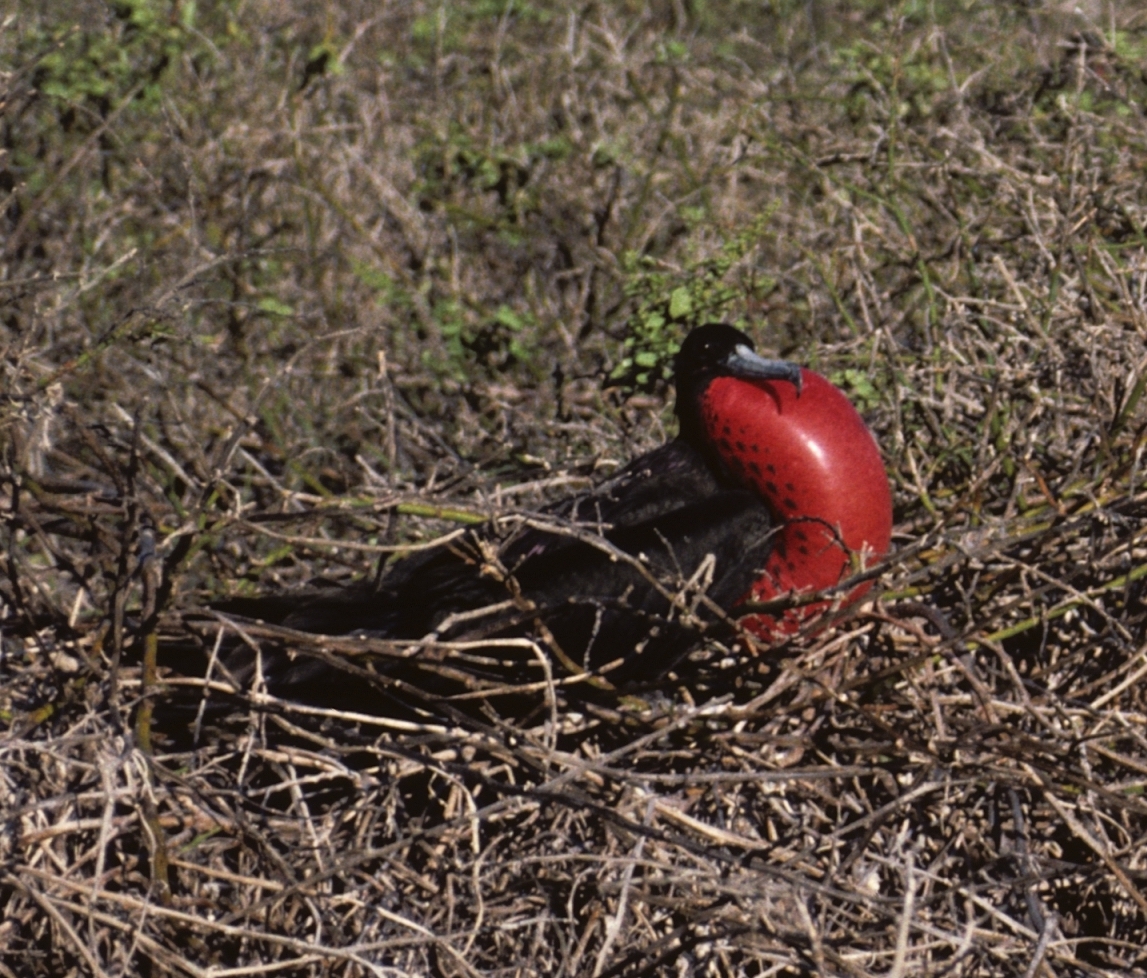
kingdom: Animalia
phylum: Chordata
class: Aves
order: Suliformes
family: Fregatidae
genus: Fregata
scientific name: Fregata magnificens
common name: Magnificent frigatebird
